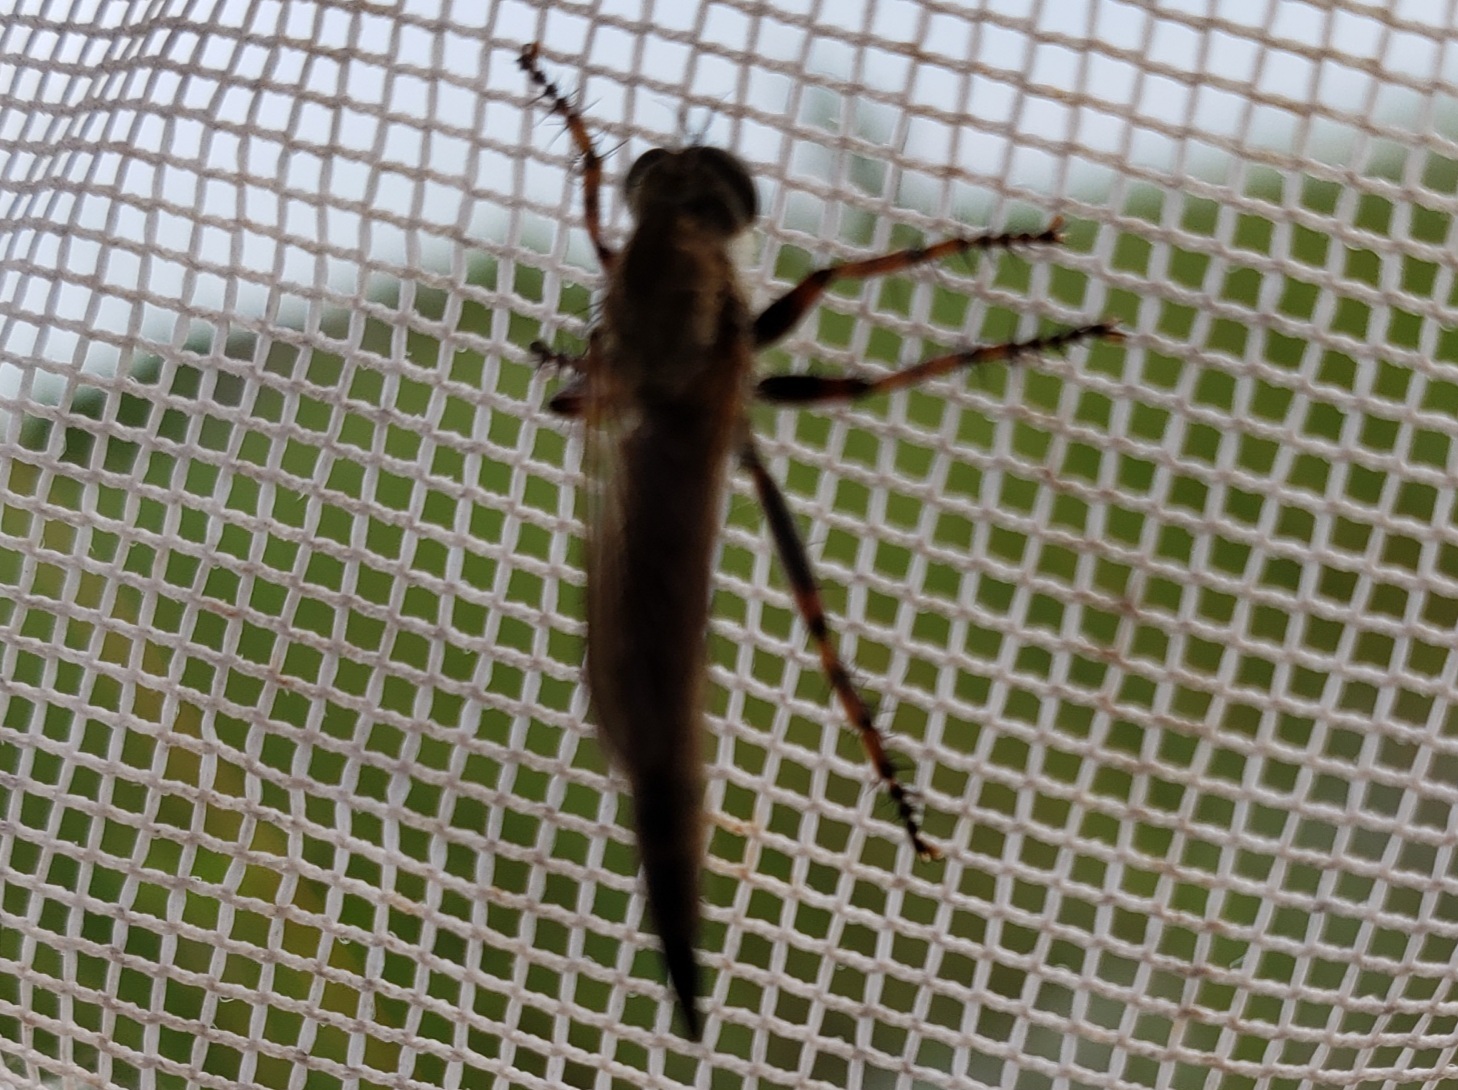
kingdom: Animalia
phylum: Arthropoda
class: Insecta
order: Diptera
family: Asilidae
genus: Machimus
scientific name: Machimus floridensis
